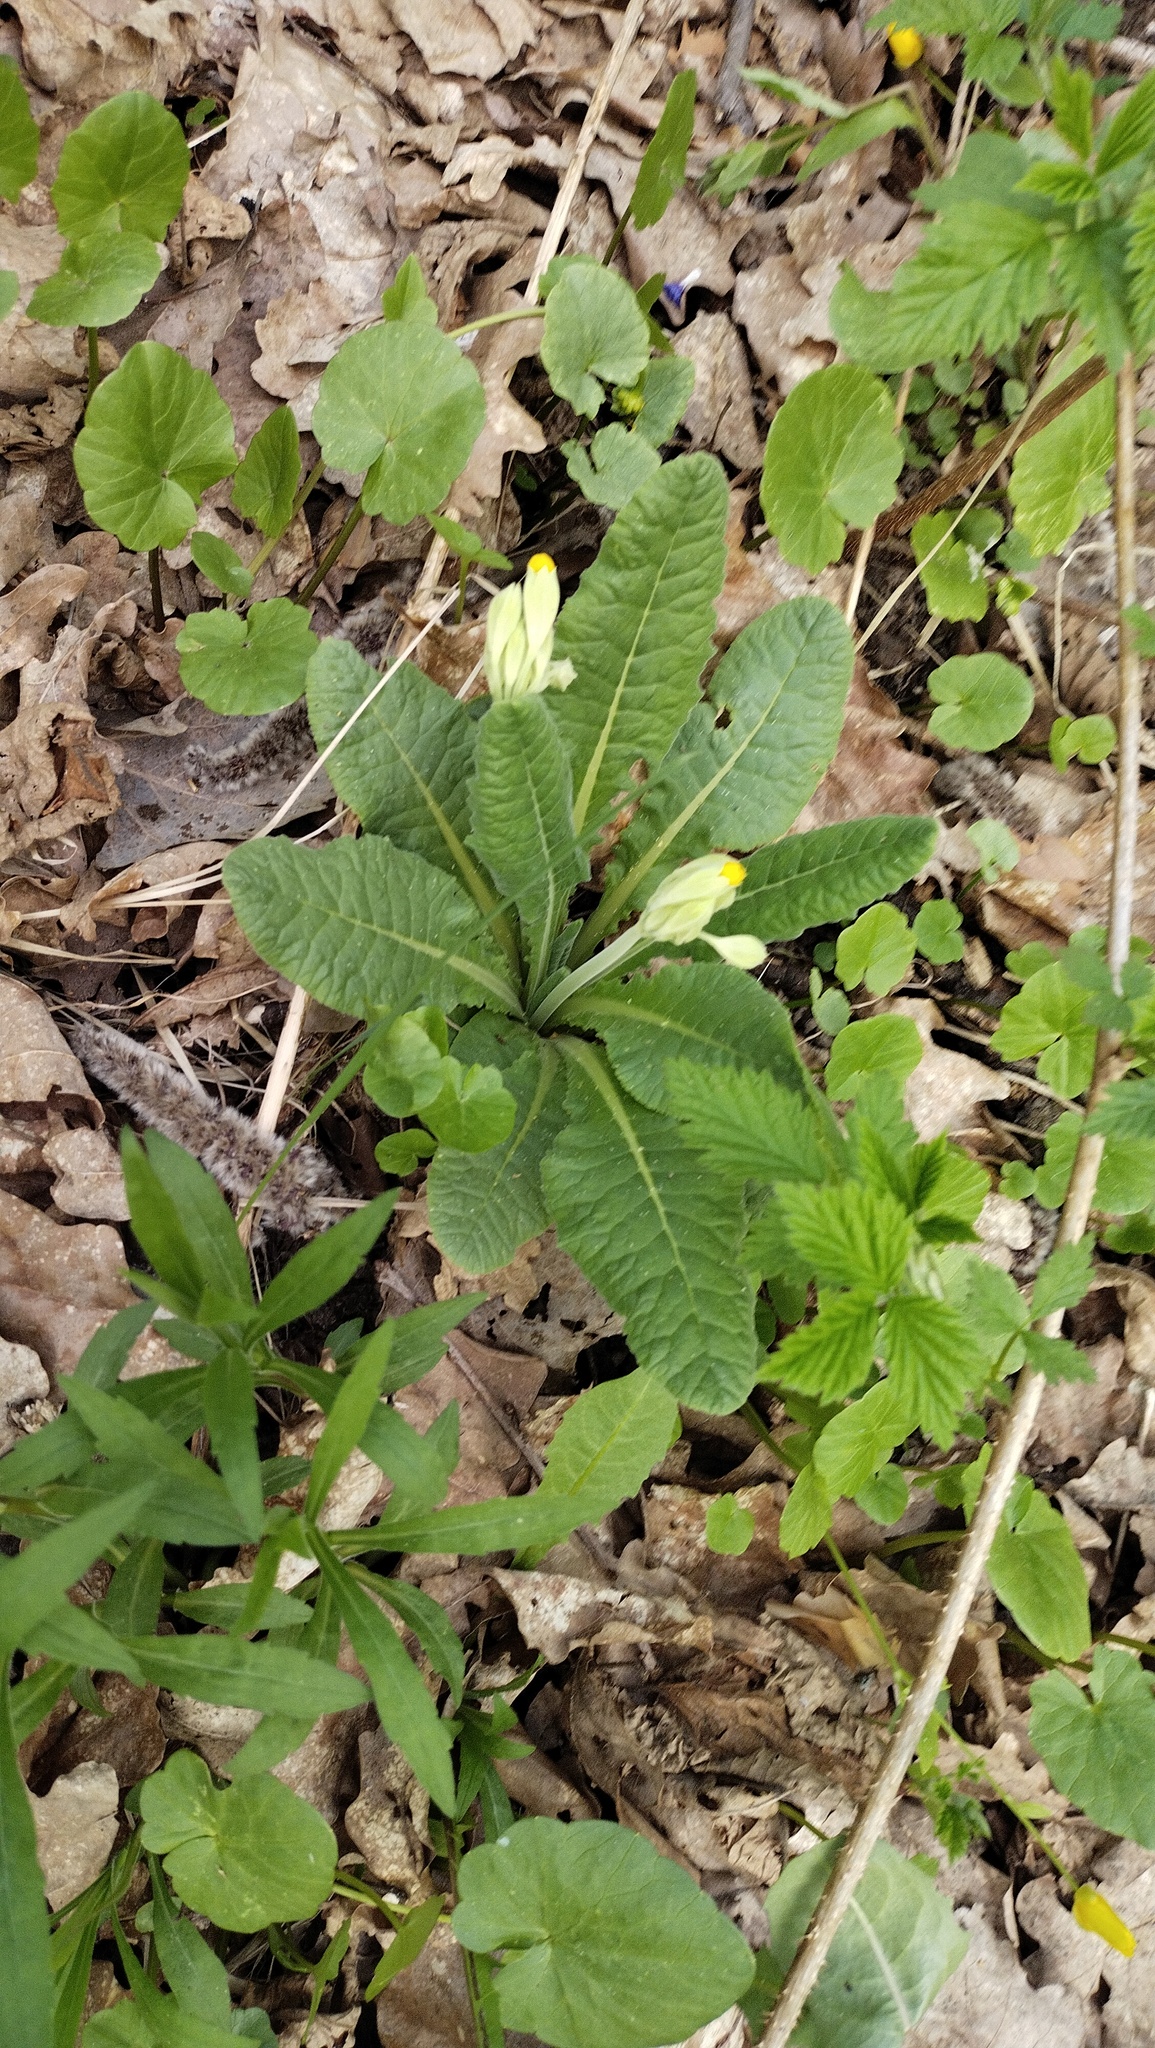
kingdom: Plantae
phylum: Tracheophyta
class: Magnoliopsida
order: Ericales
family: Primulaceae
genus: Primula
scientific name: Primula veris
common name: Cowslip
